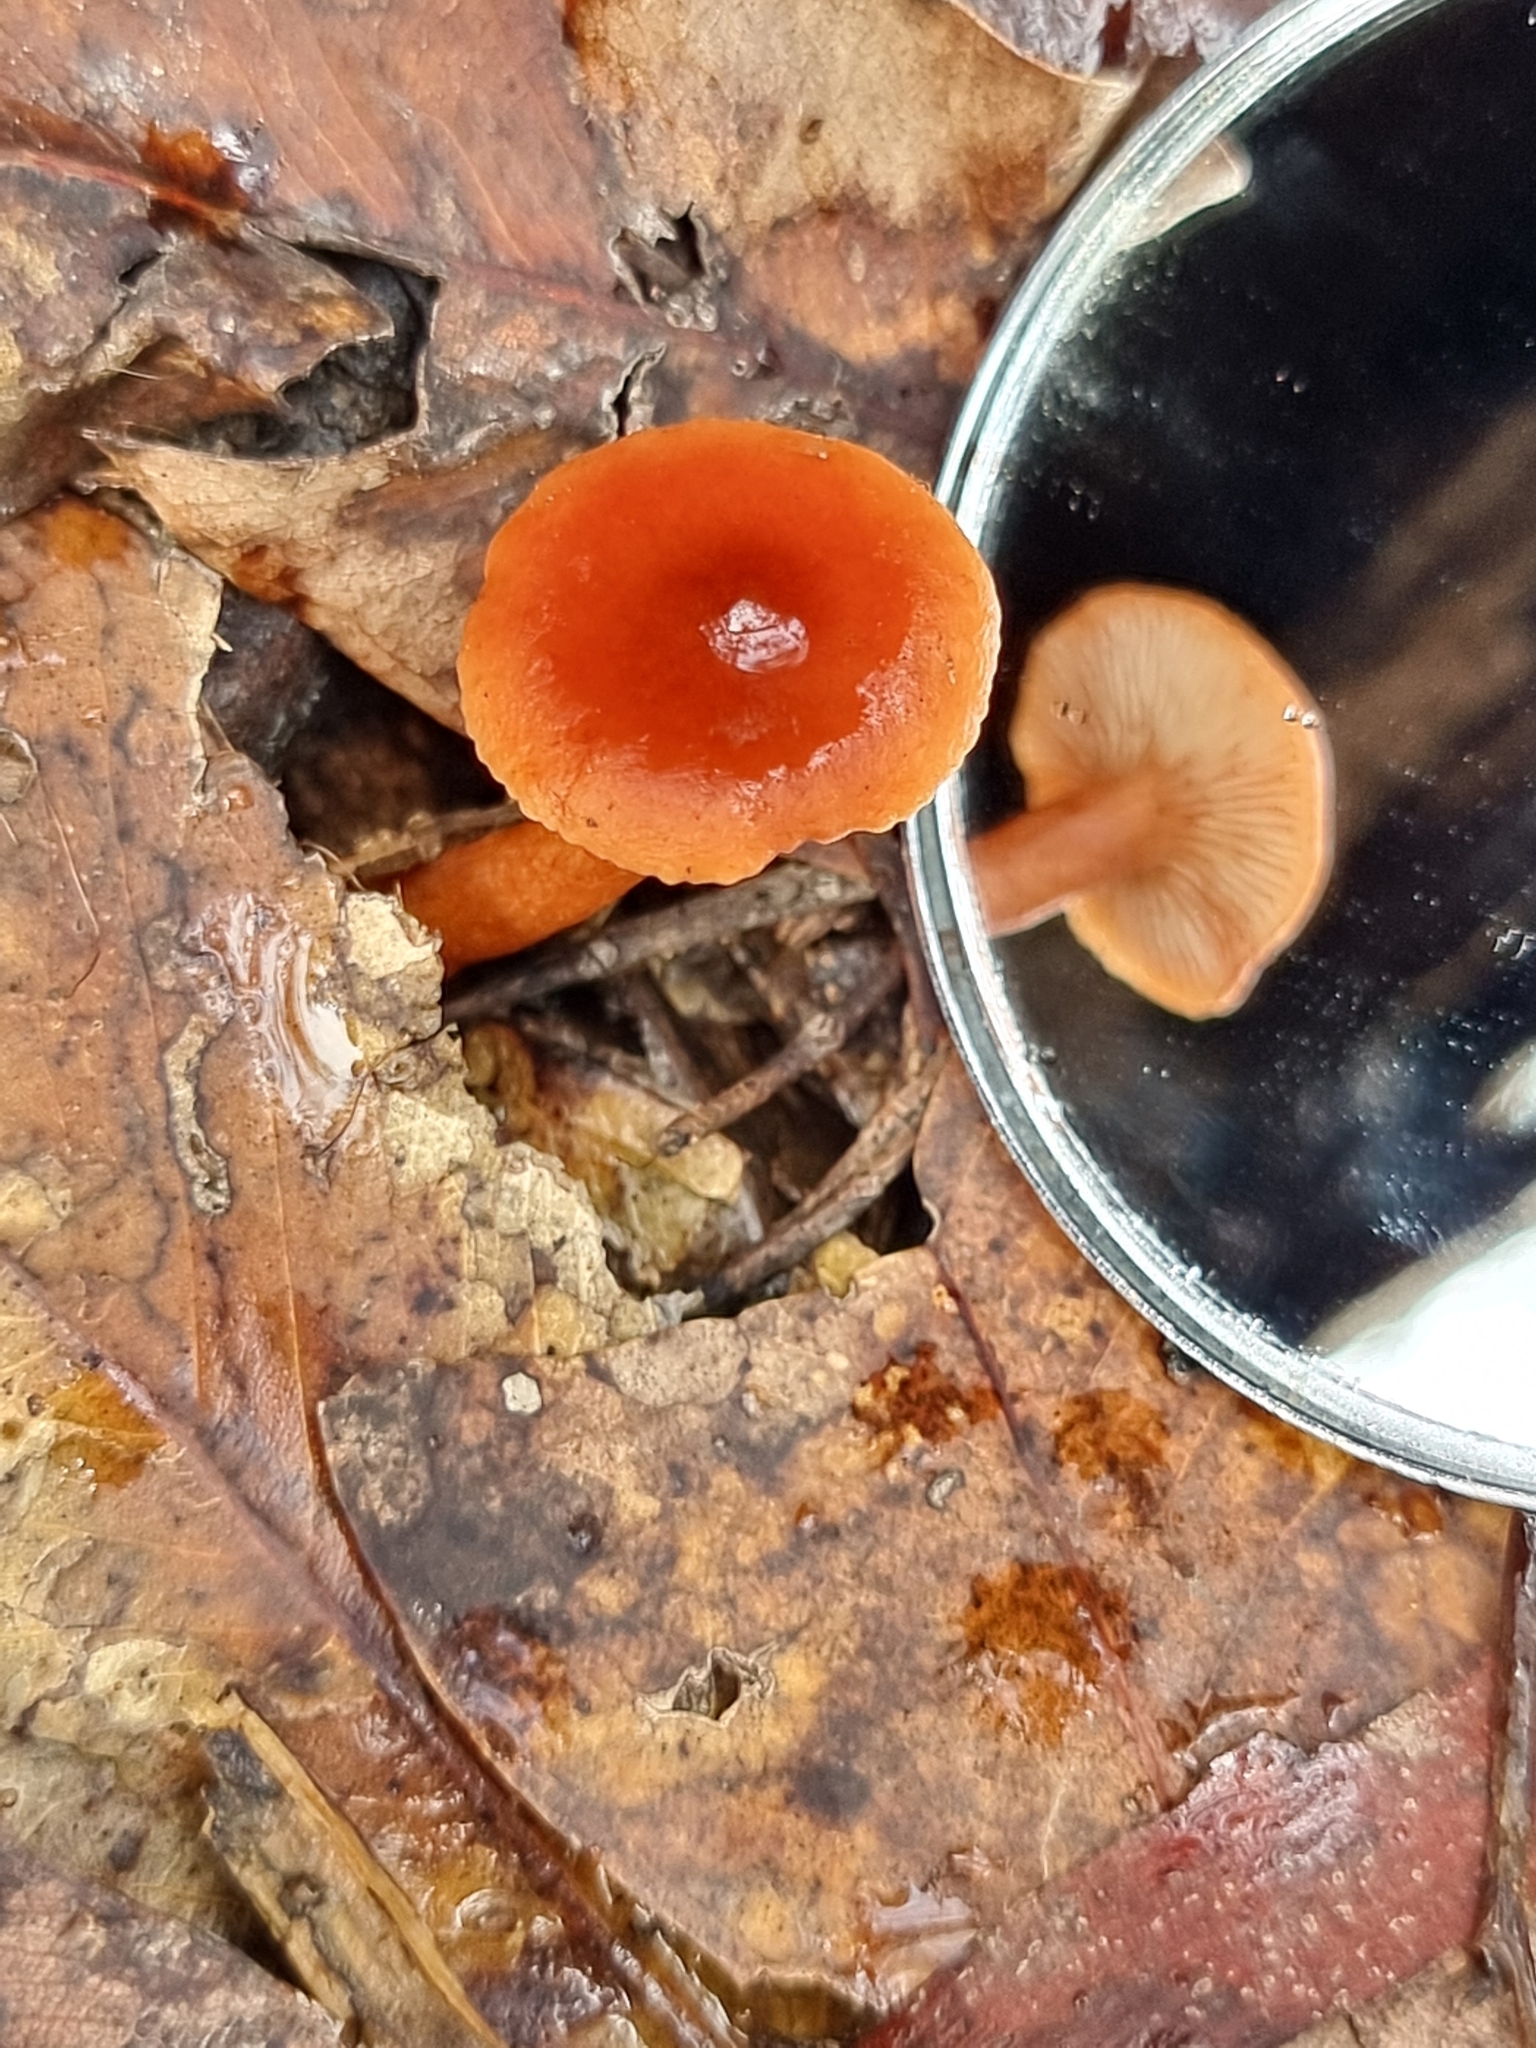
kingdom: Fungi
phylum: Basidiomycota
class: Agaricomycetes
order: Russulales
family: Russulaceae
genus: Lactarius
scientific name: Lactarius eucalypti
